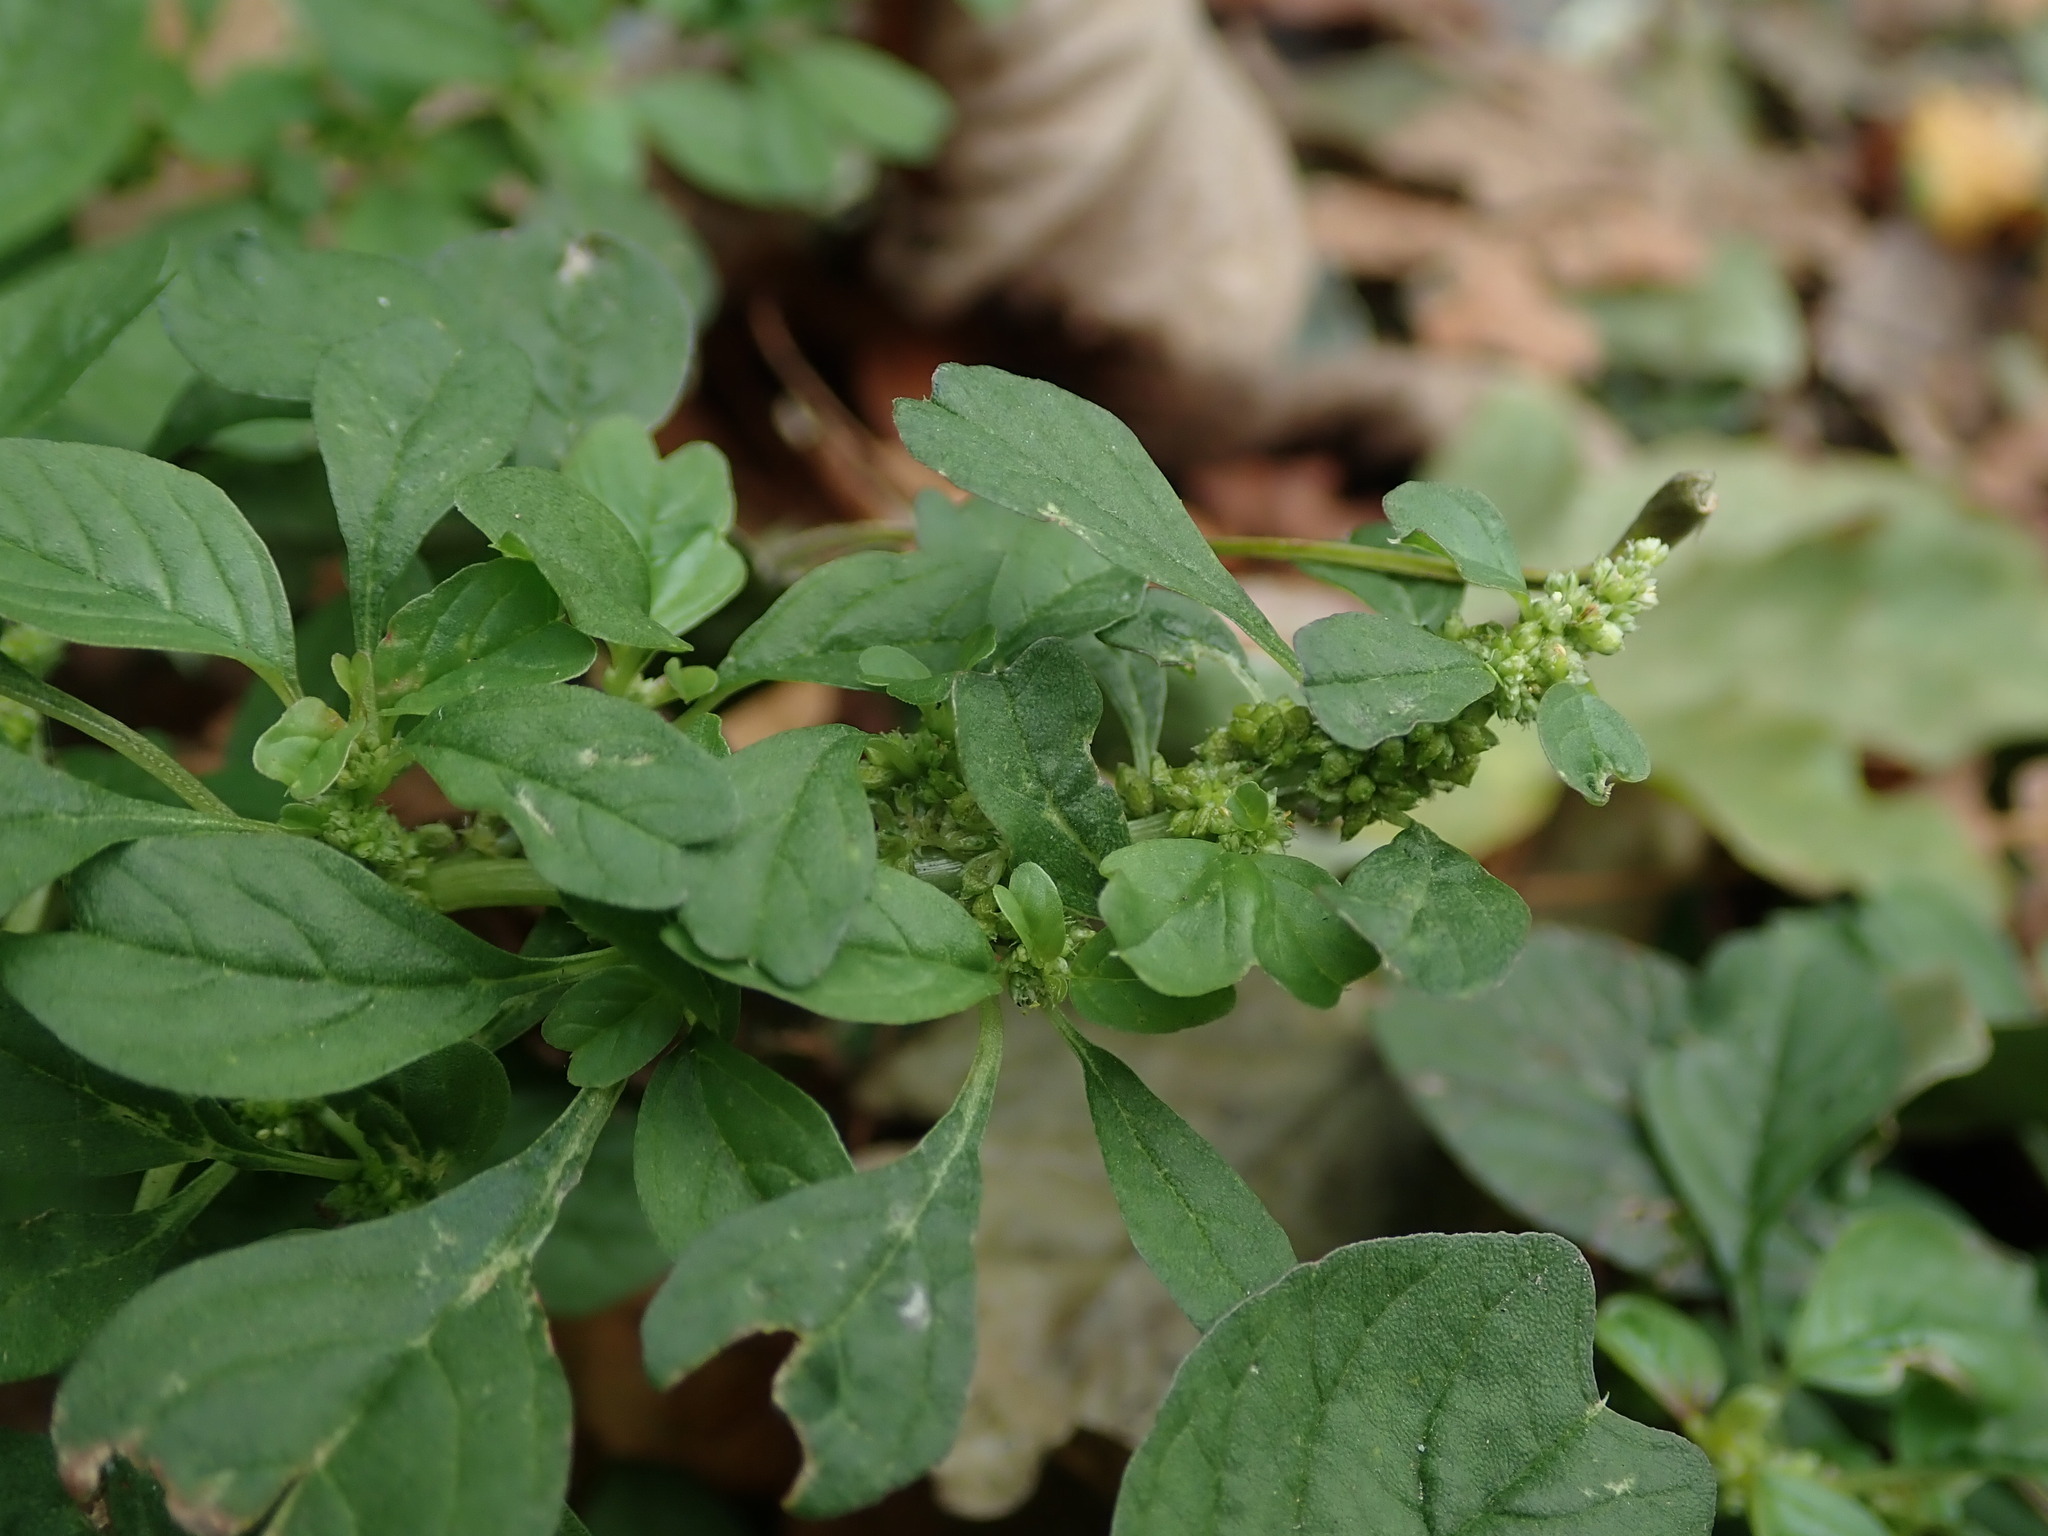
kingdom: Plantae
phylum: Tracheophyta
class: Magnoliopsida
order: Caryophyllales
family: Amaranthaceae
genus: Amaranthus
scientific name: Amaranthus blitum
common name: Purple amaranth
